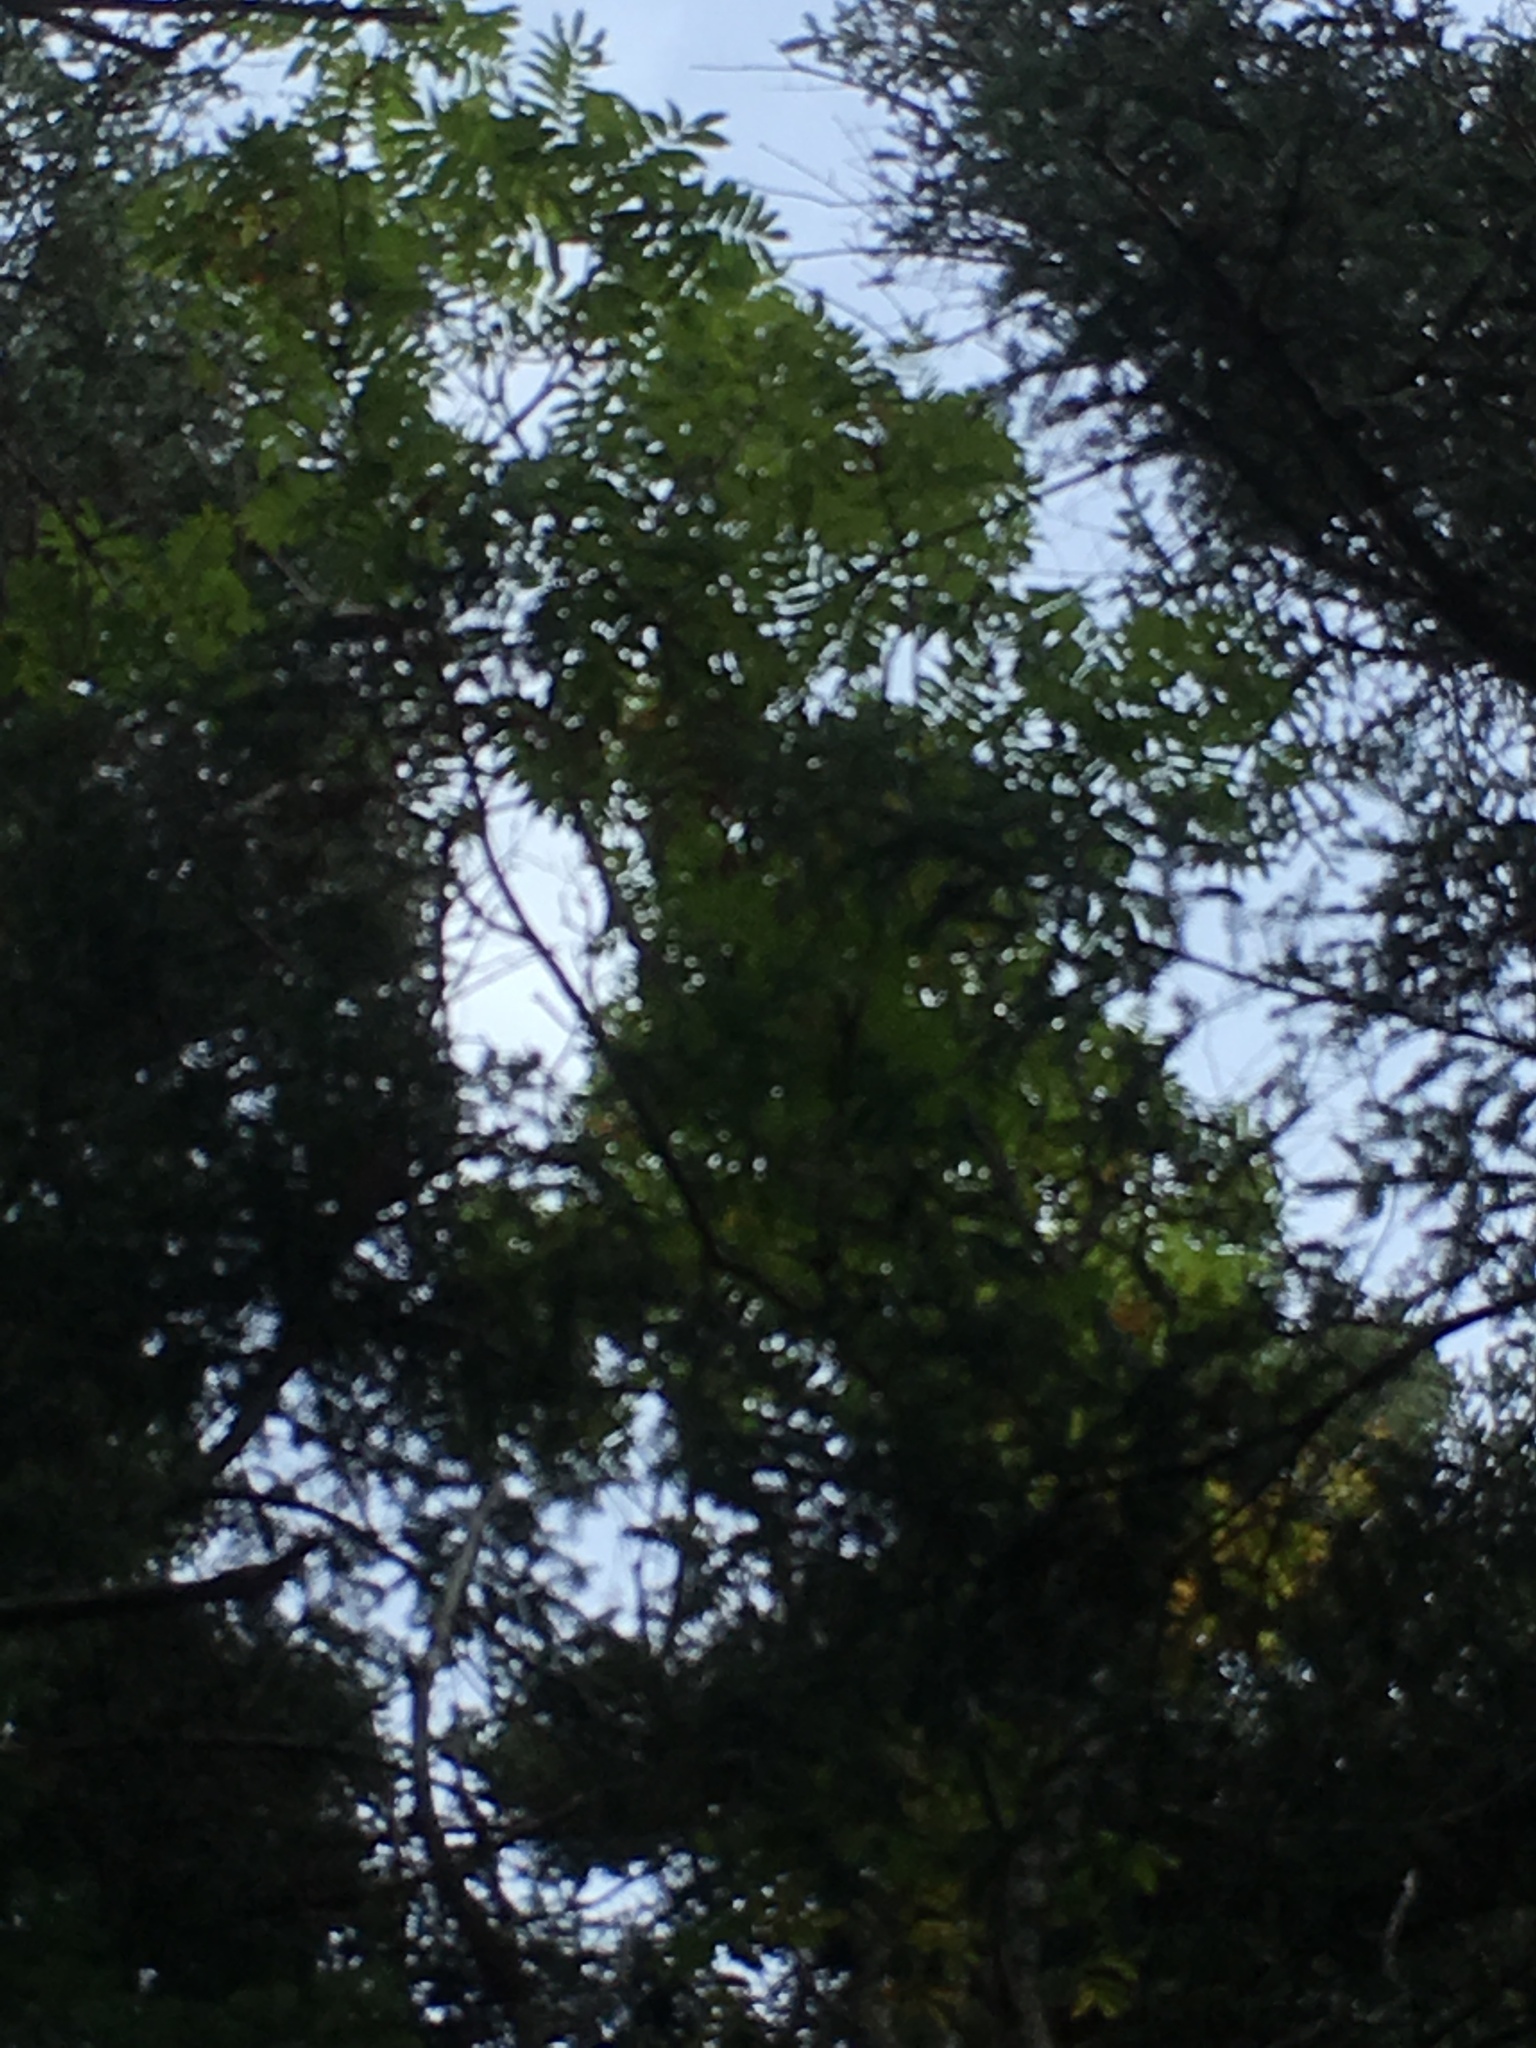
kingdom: Plantae
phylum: Tracheophyta
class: Magnoliopsida
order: Rosales
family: Rosaceae
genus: Sorbus
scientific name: Sorbus americana
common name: American mountain-ash
